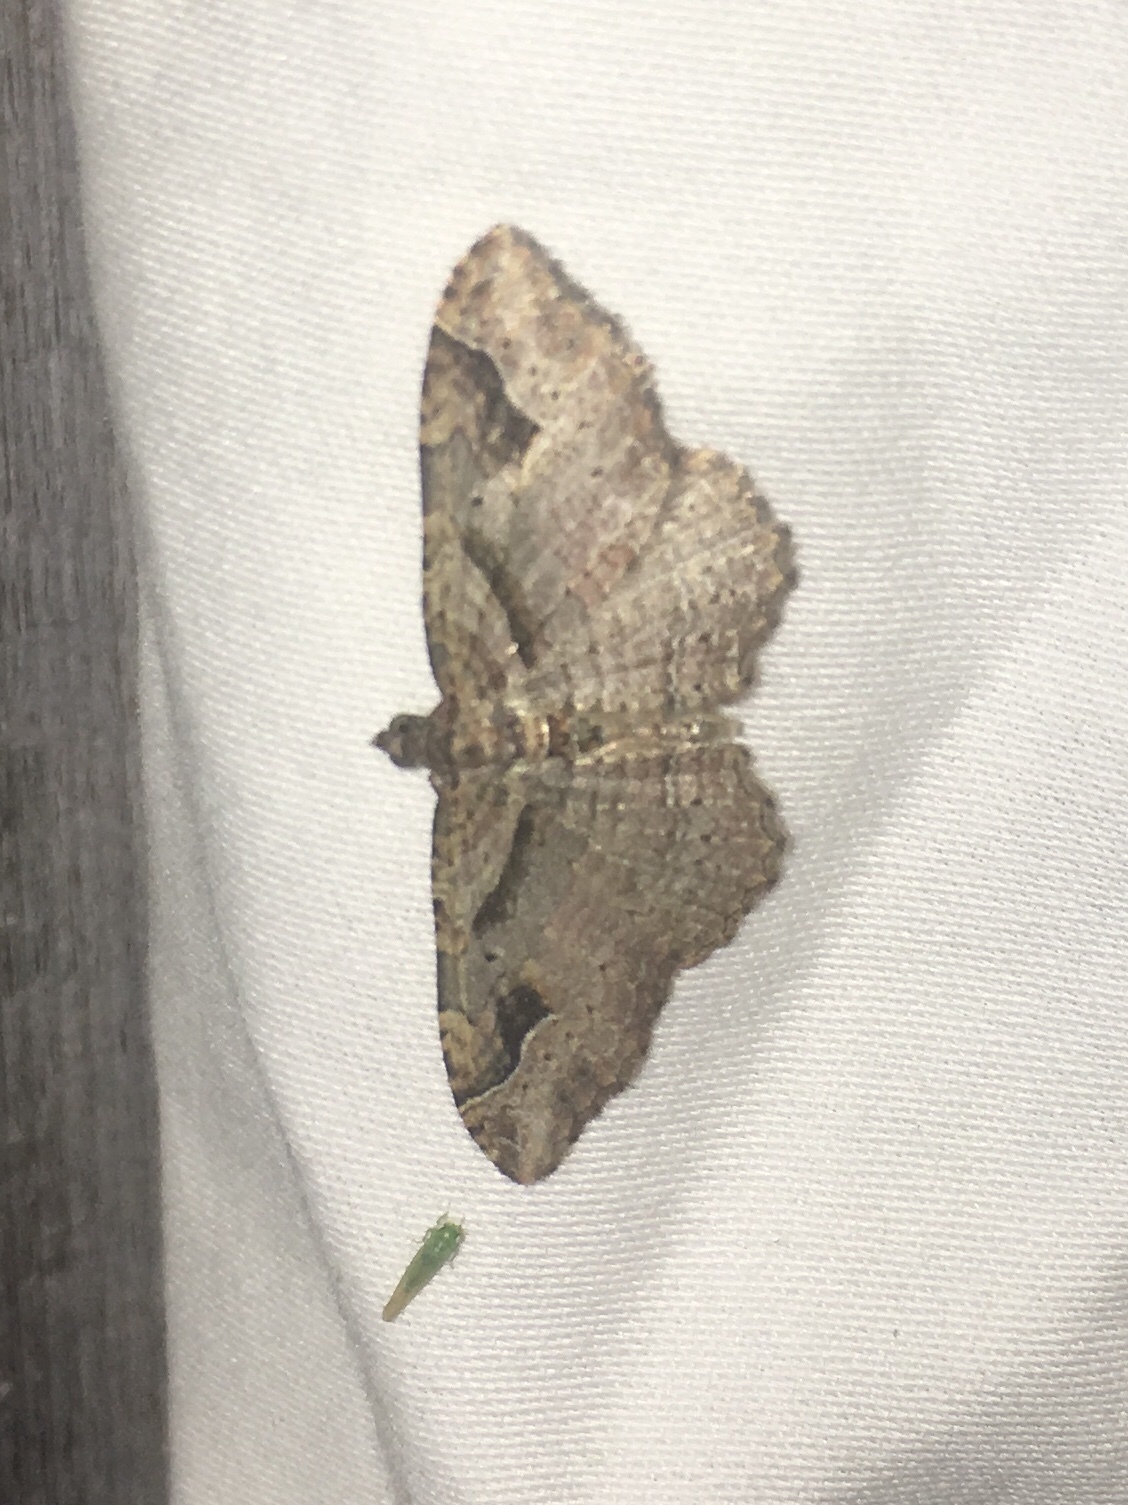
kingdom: Animalia
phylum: Arthropoda
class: Insecta
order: Lepidoptera
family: Geometridae
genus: Costaconvexa
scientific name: Costaconvexa centrostrigaria
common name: Bent-line carpet
